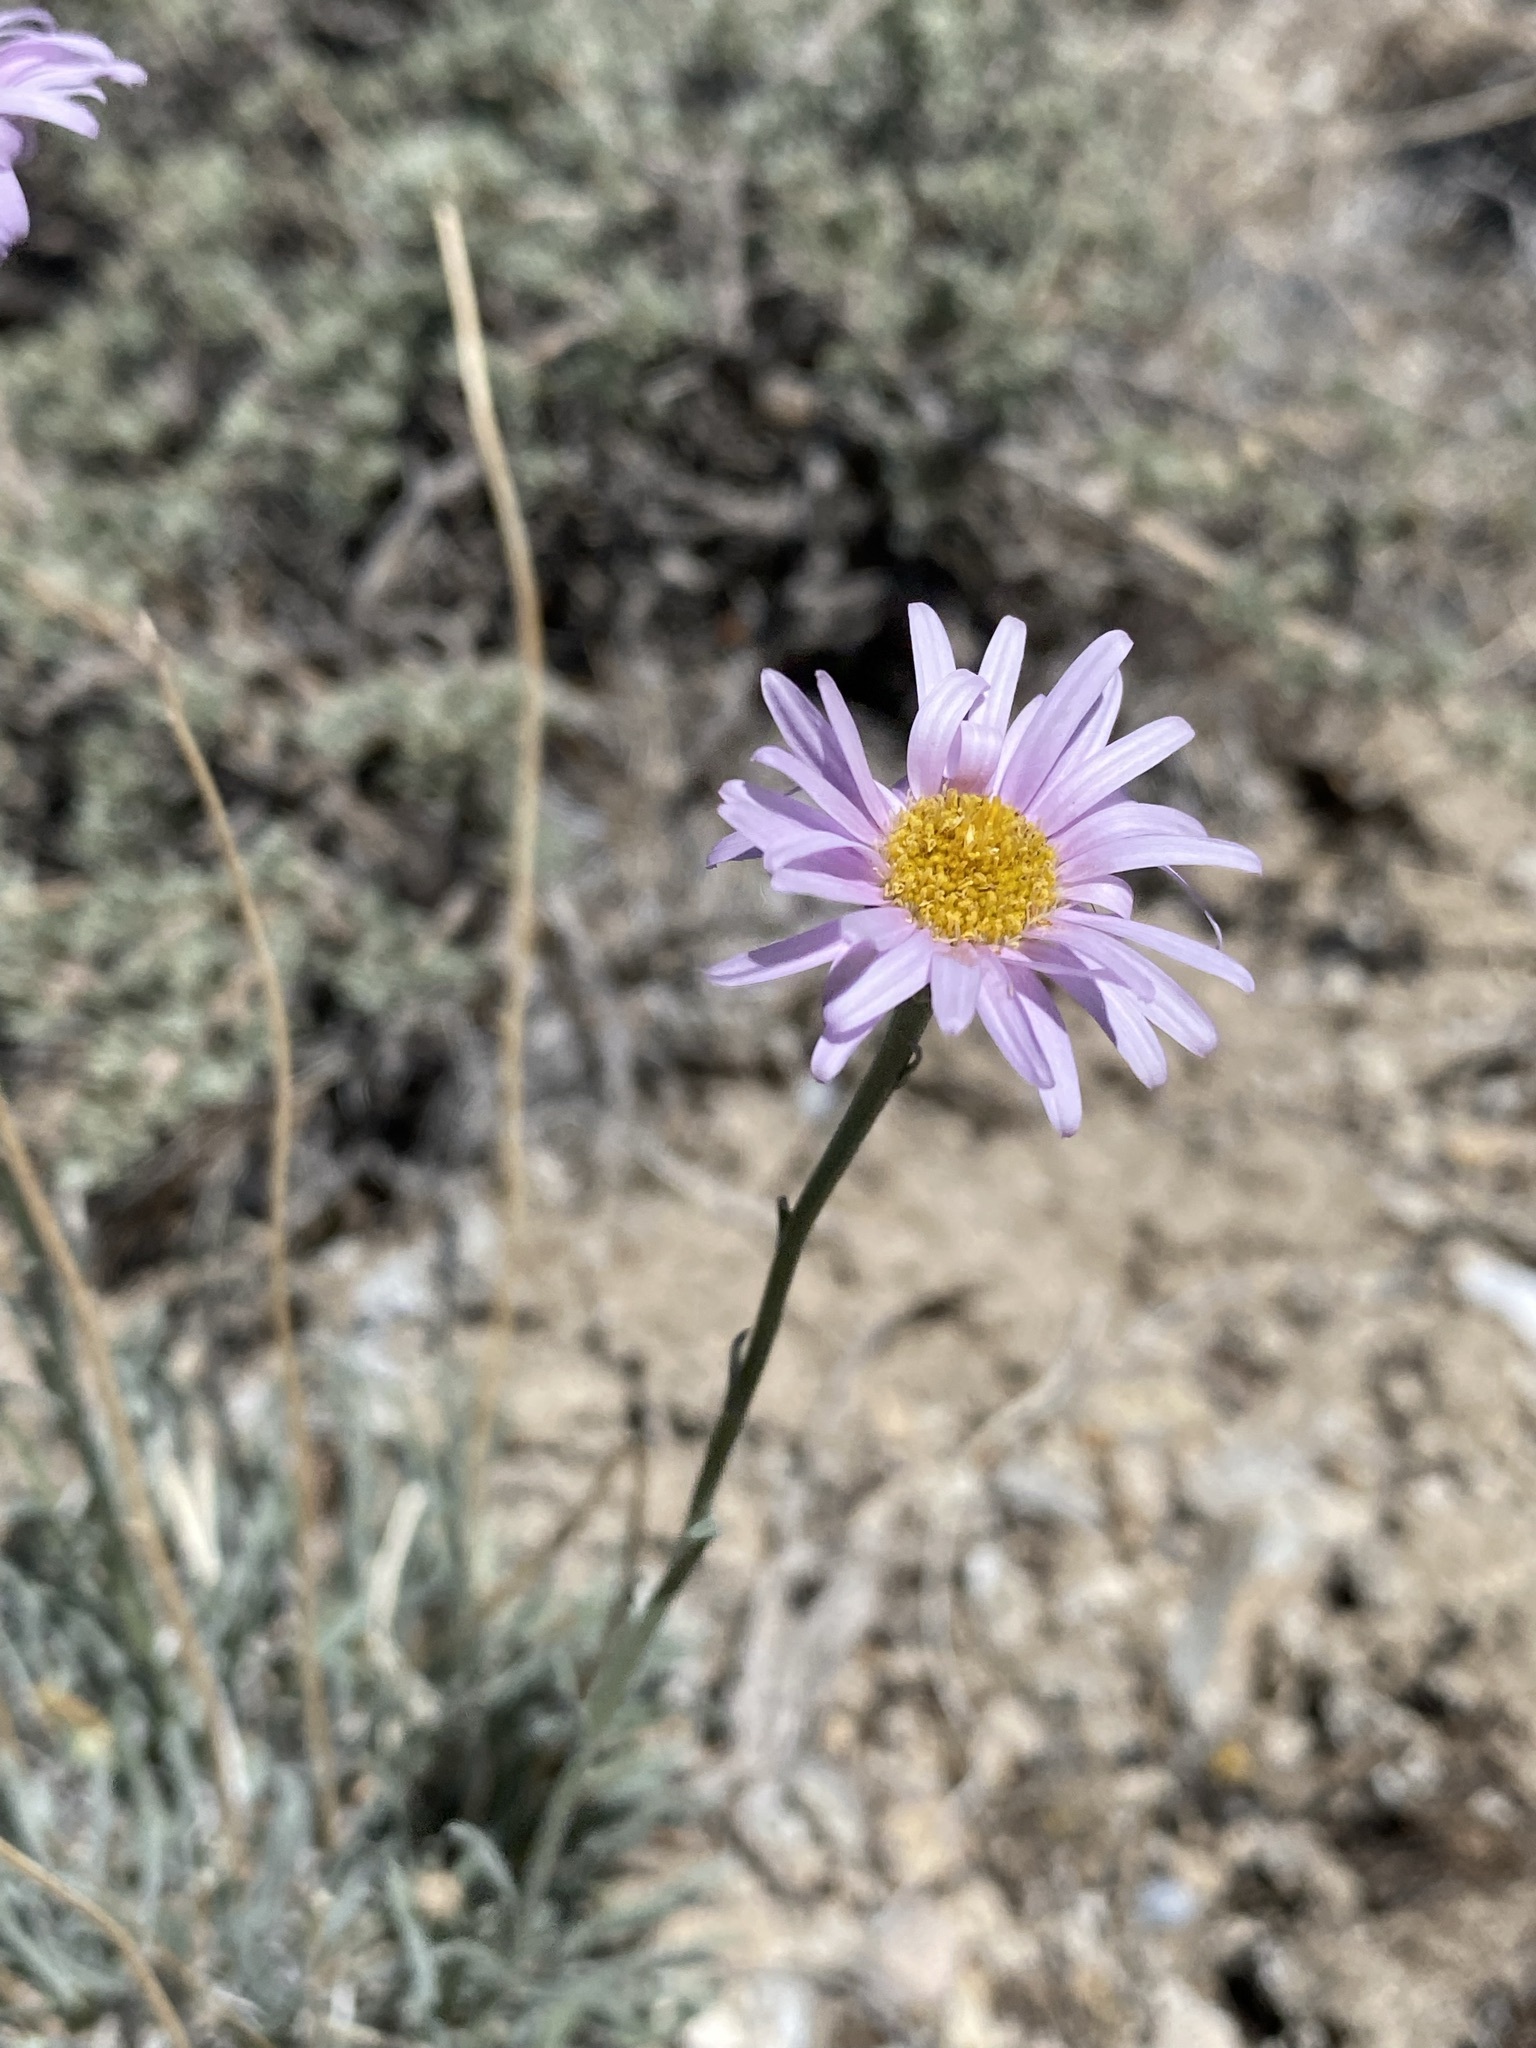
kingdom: Plantae
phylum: Tracheophyta
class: Magnoliopsida
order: Asterales
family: Asteraceae
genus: Erigeron
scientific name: Erigeron argentatus
